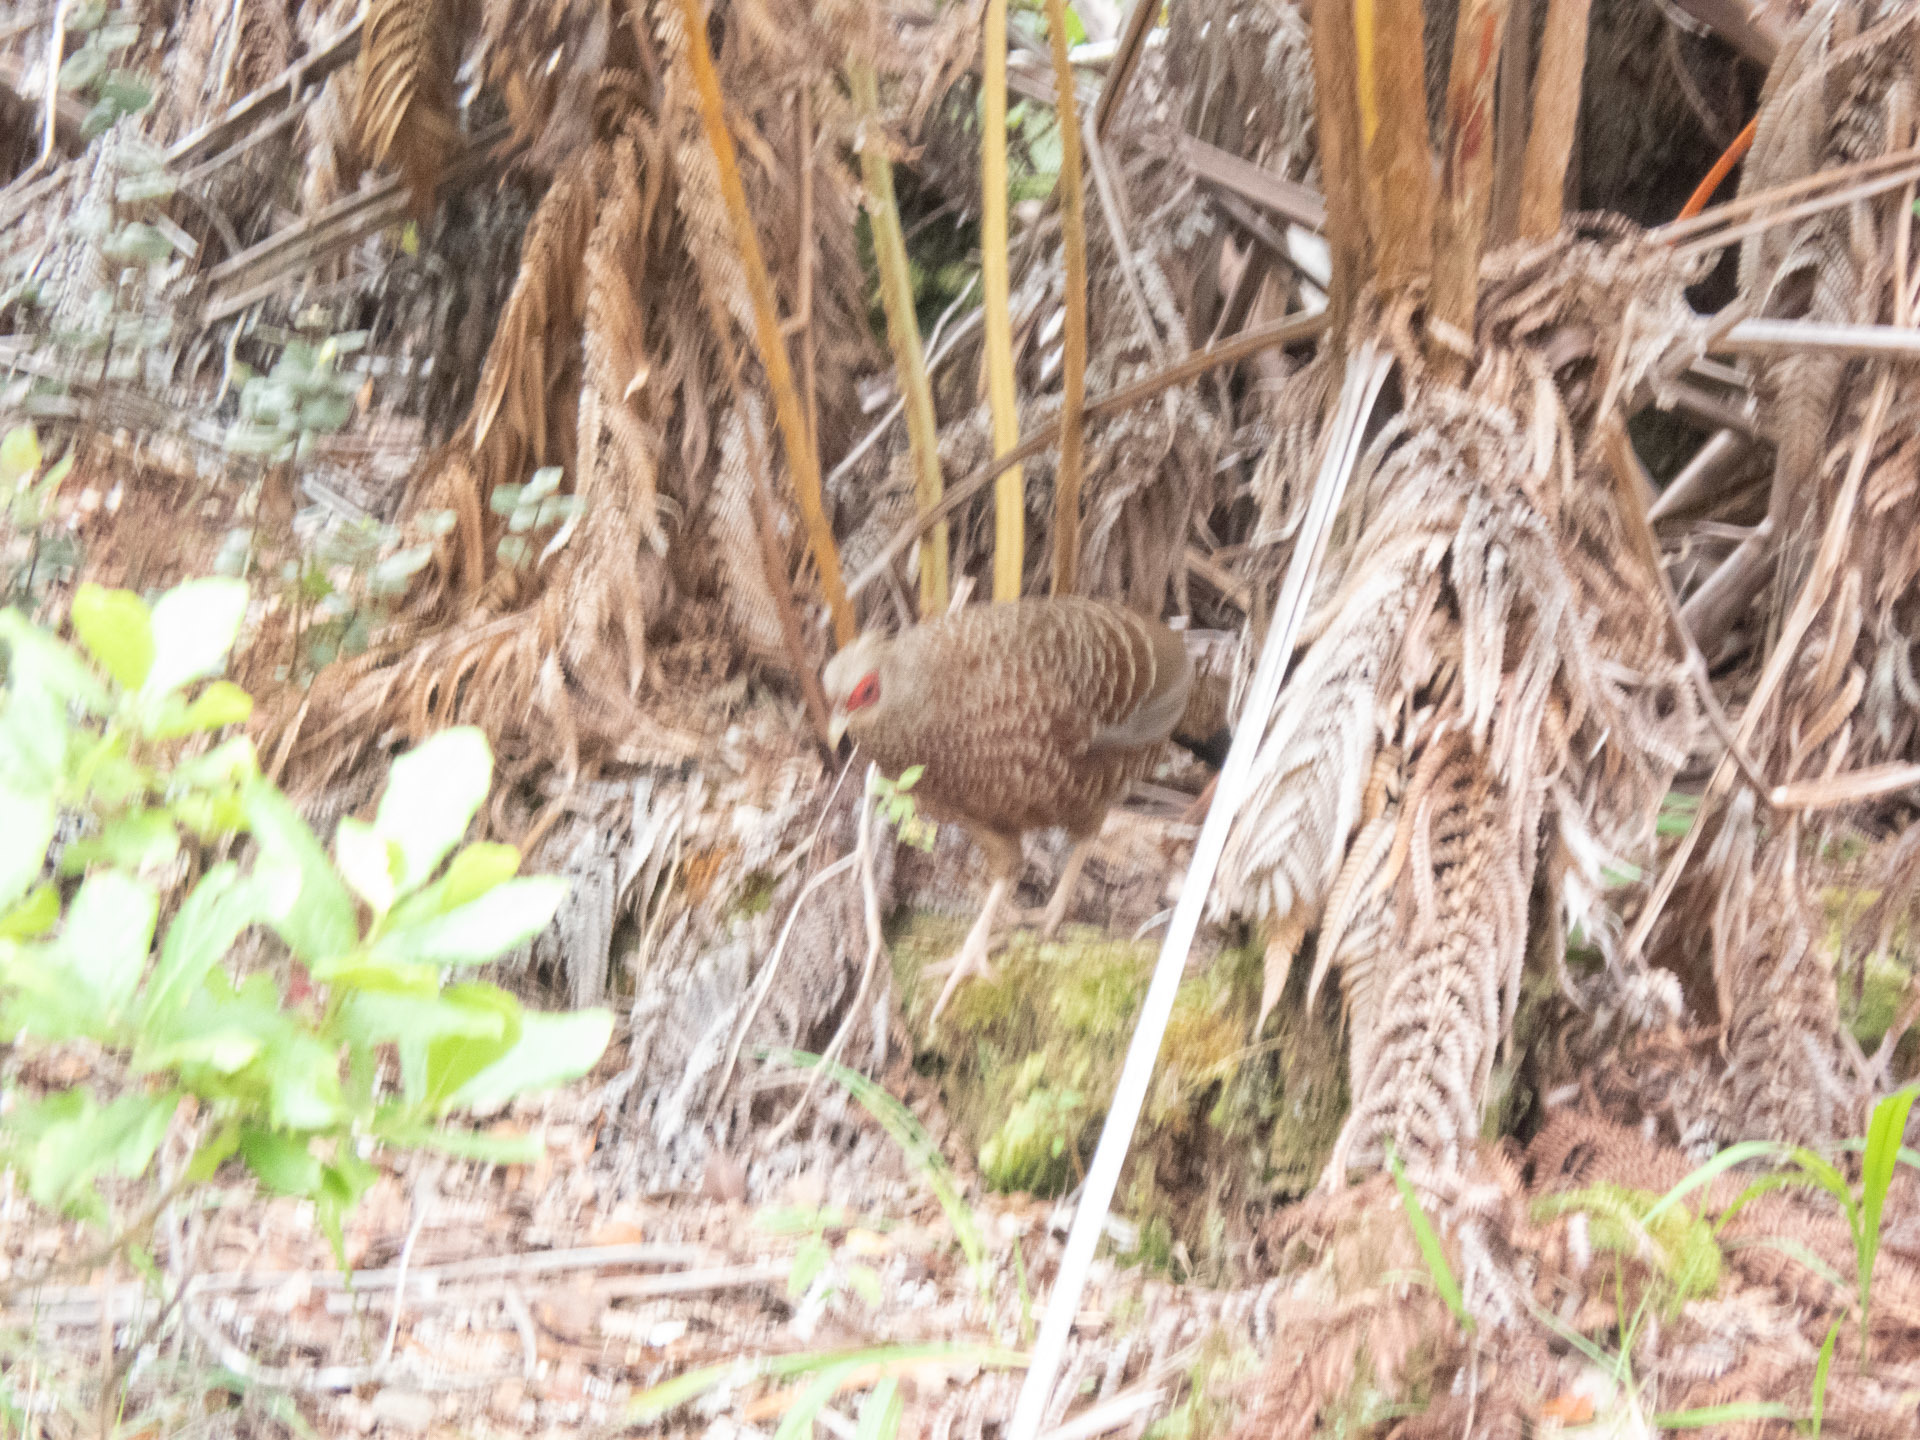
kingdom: Animalia
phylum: Chordata
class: Aves
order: Galliformes
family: Phasianidae
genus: Lophura
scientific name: Lophura leucomelanos
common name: Kalij pheasant
